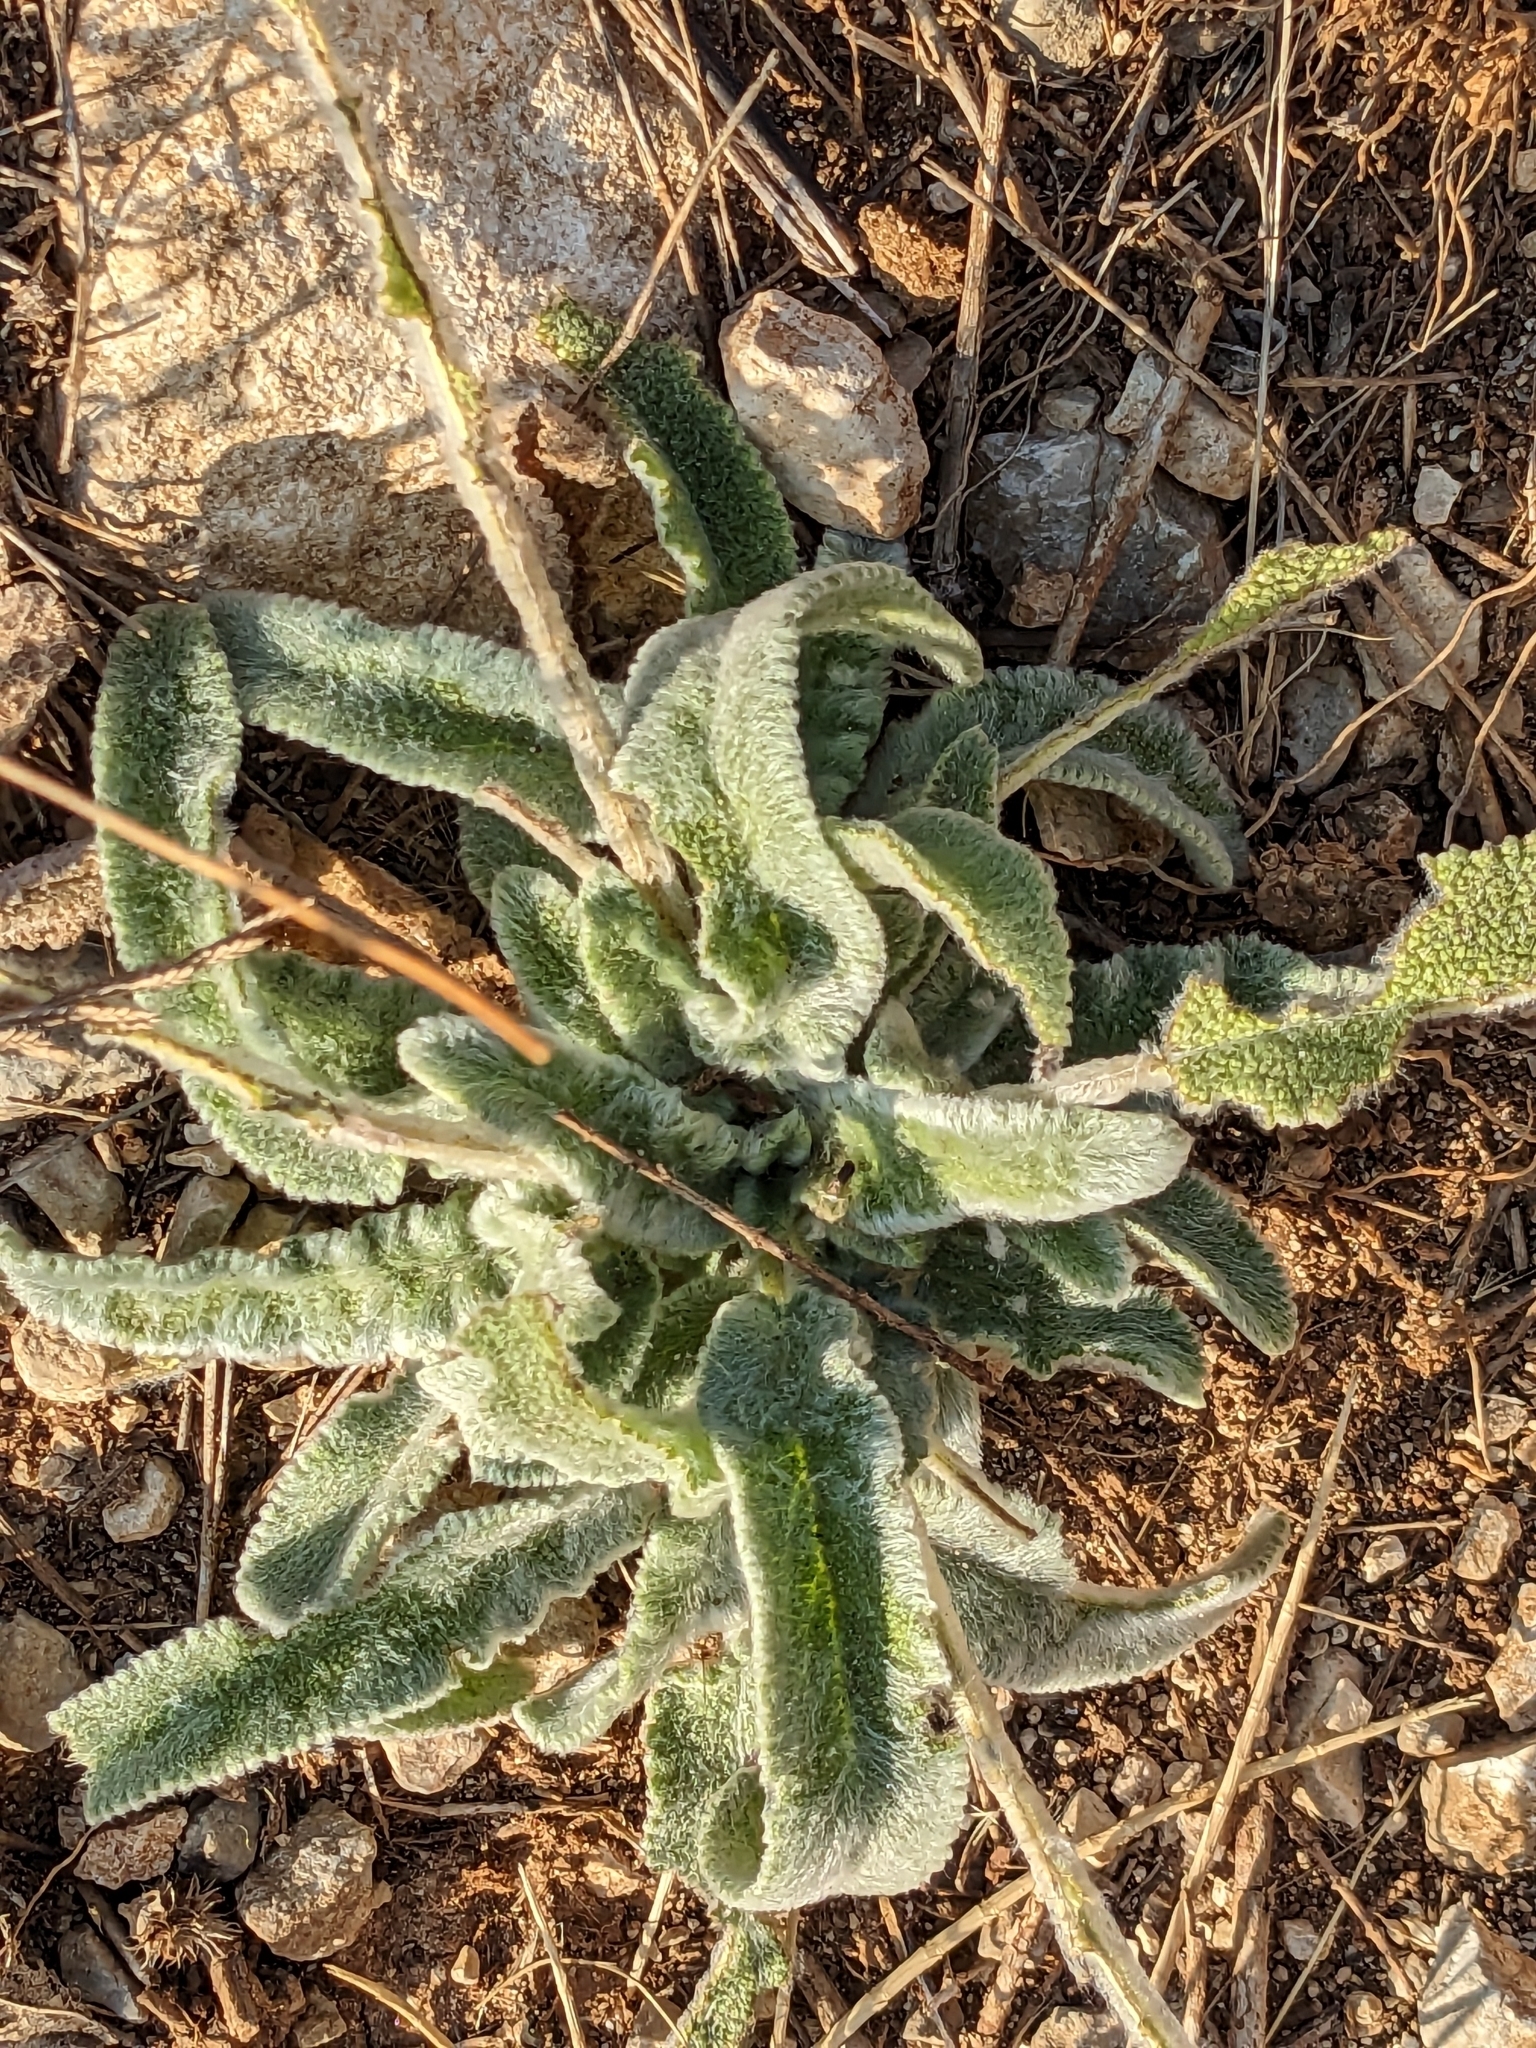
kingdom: Plantae
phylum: Tracheophyta
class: Magnoliopsida
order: Asterales
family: Asteraceae
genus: Pallenis
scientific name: Pallenis spinosa
